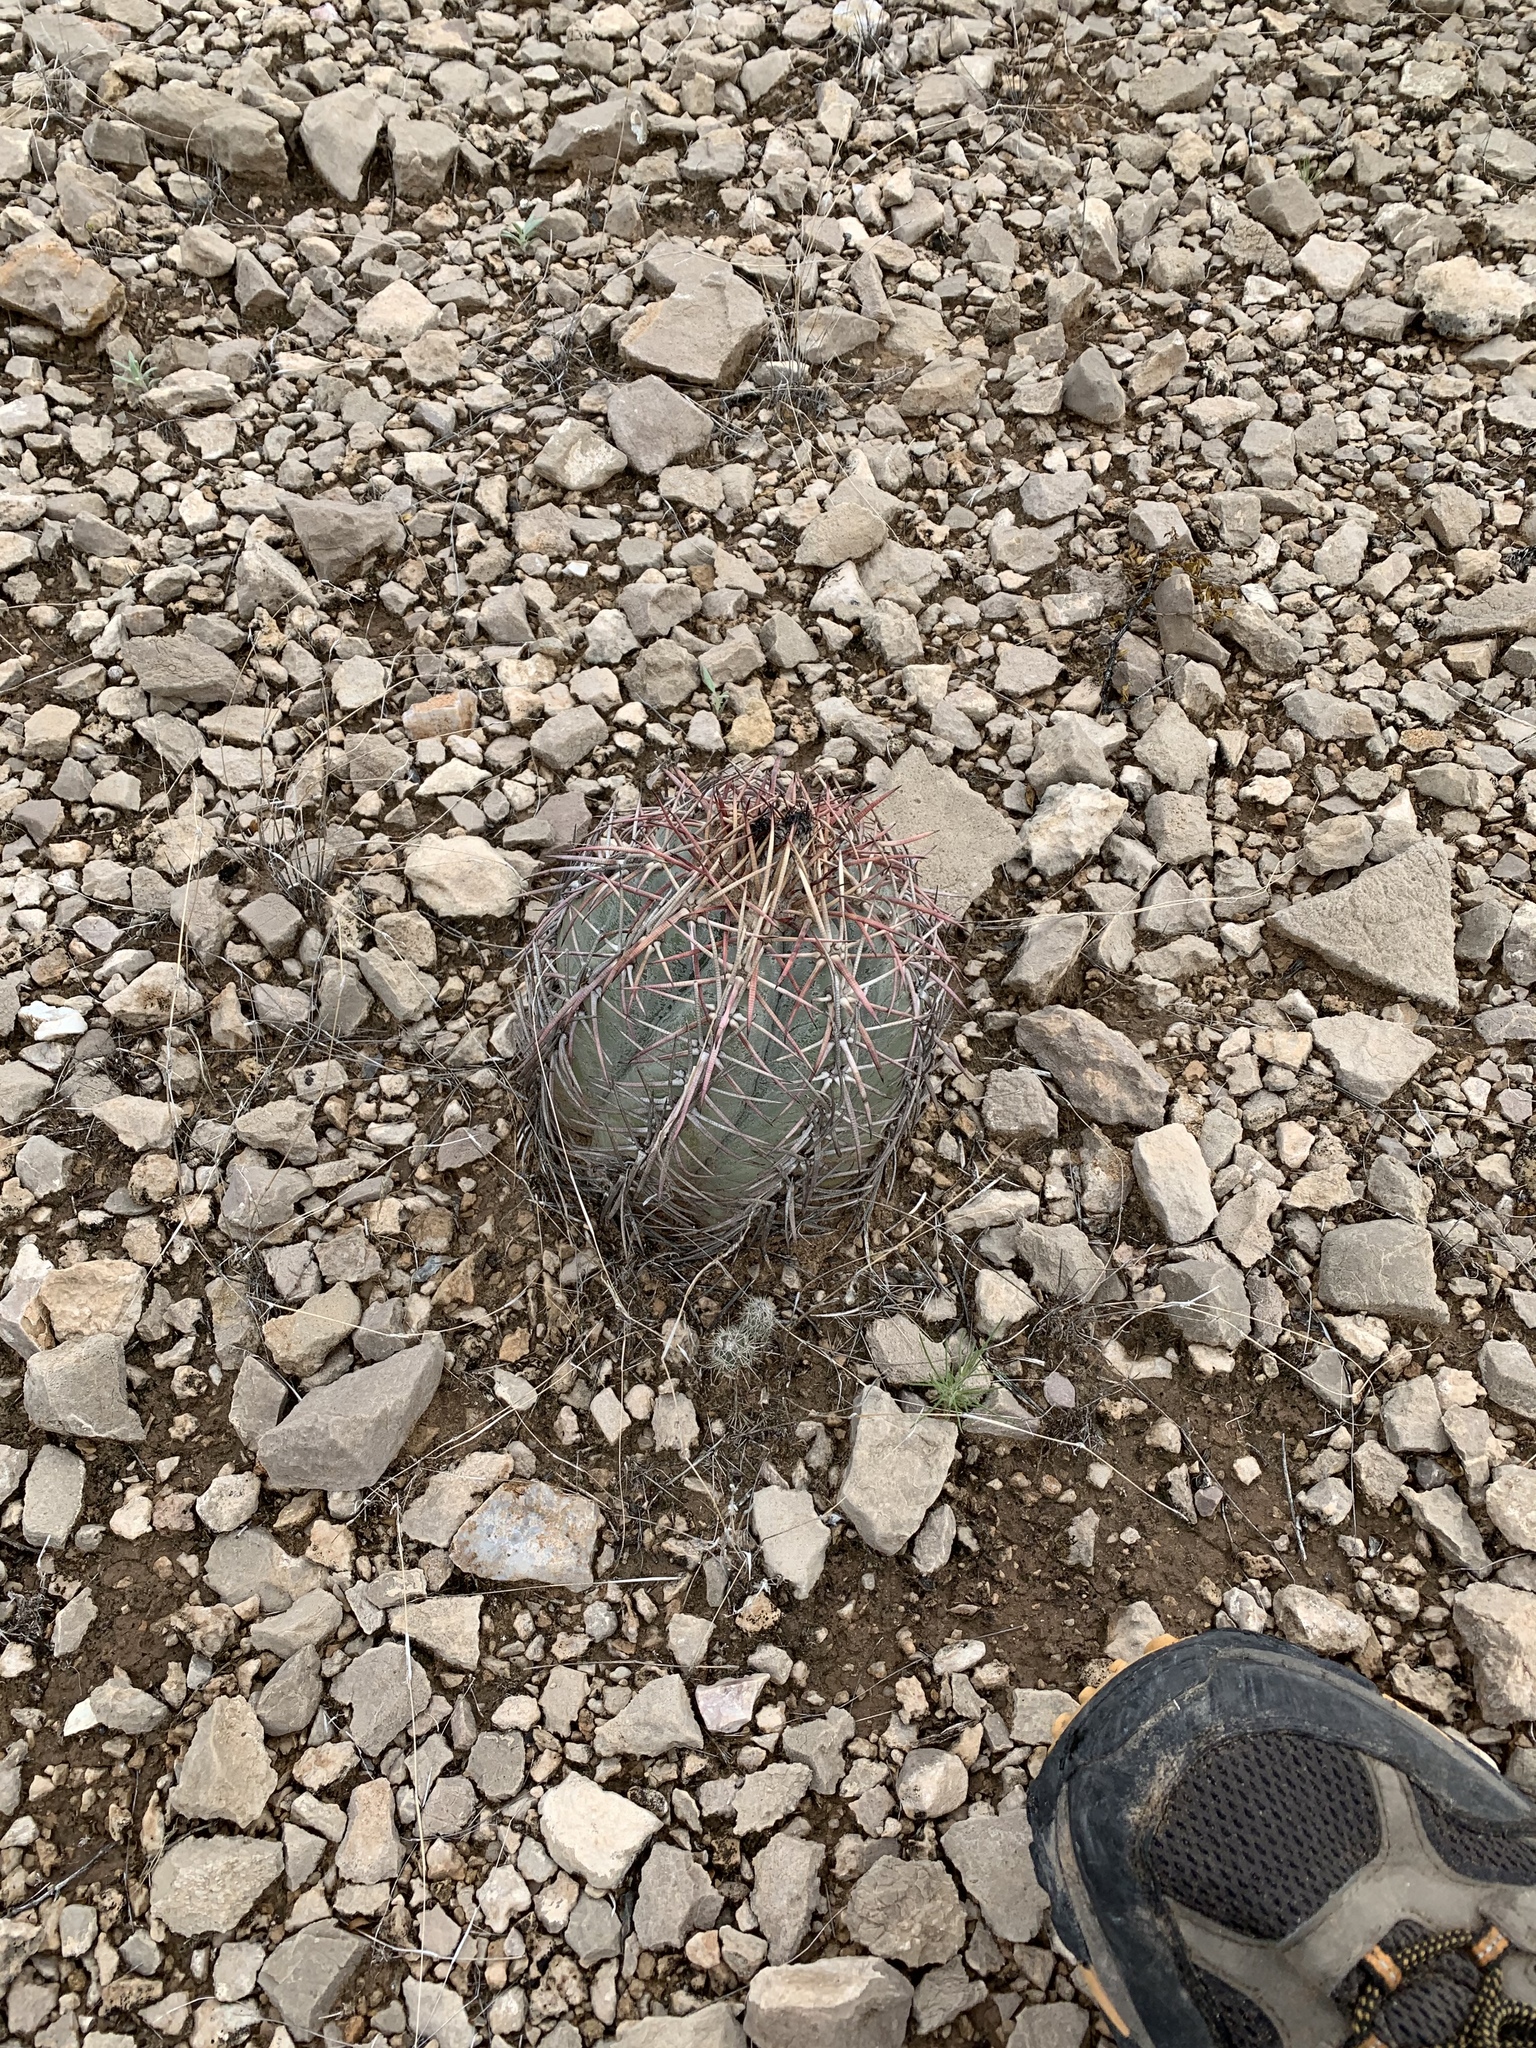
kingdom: Plantae
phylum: Tracheophyta
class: Magnoliopsida
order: Caryophyllales
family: Cactaceae
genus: Echinocactus
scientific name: Echinocactus horizonthalonius
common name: Devilshead
